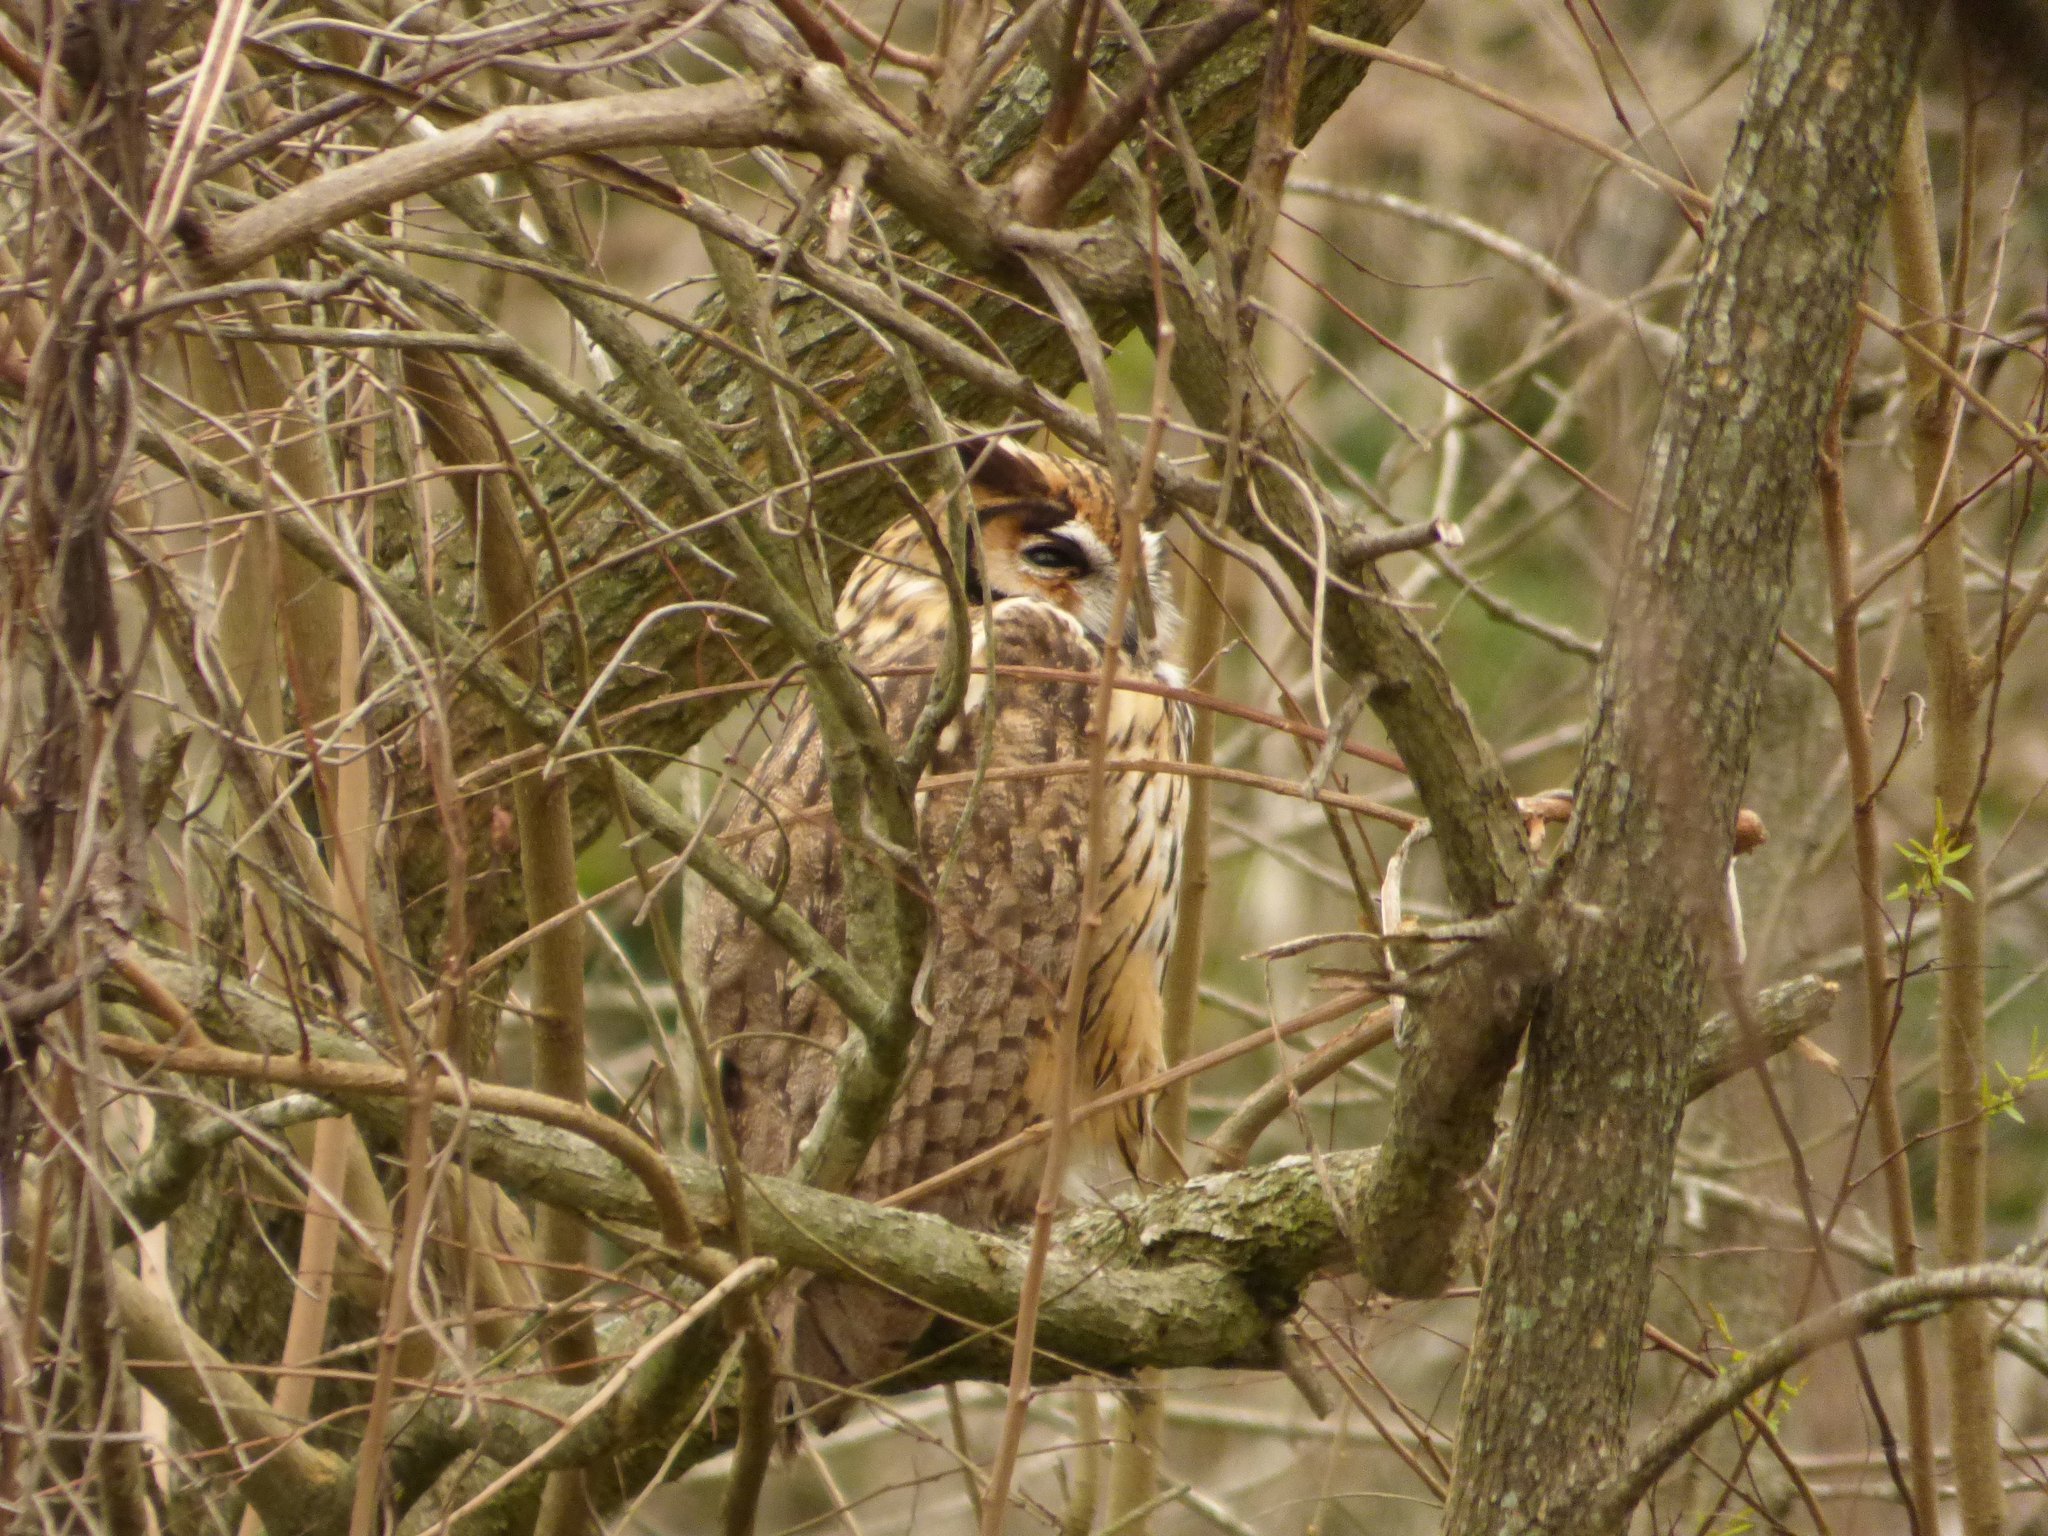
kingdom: Animalia
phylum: Chordata
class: Aves
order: Strigiformes
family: Strigidae
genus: Pseudoscops
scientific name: Pseudoscops clamator
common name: Striped owl
